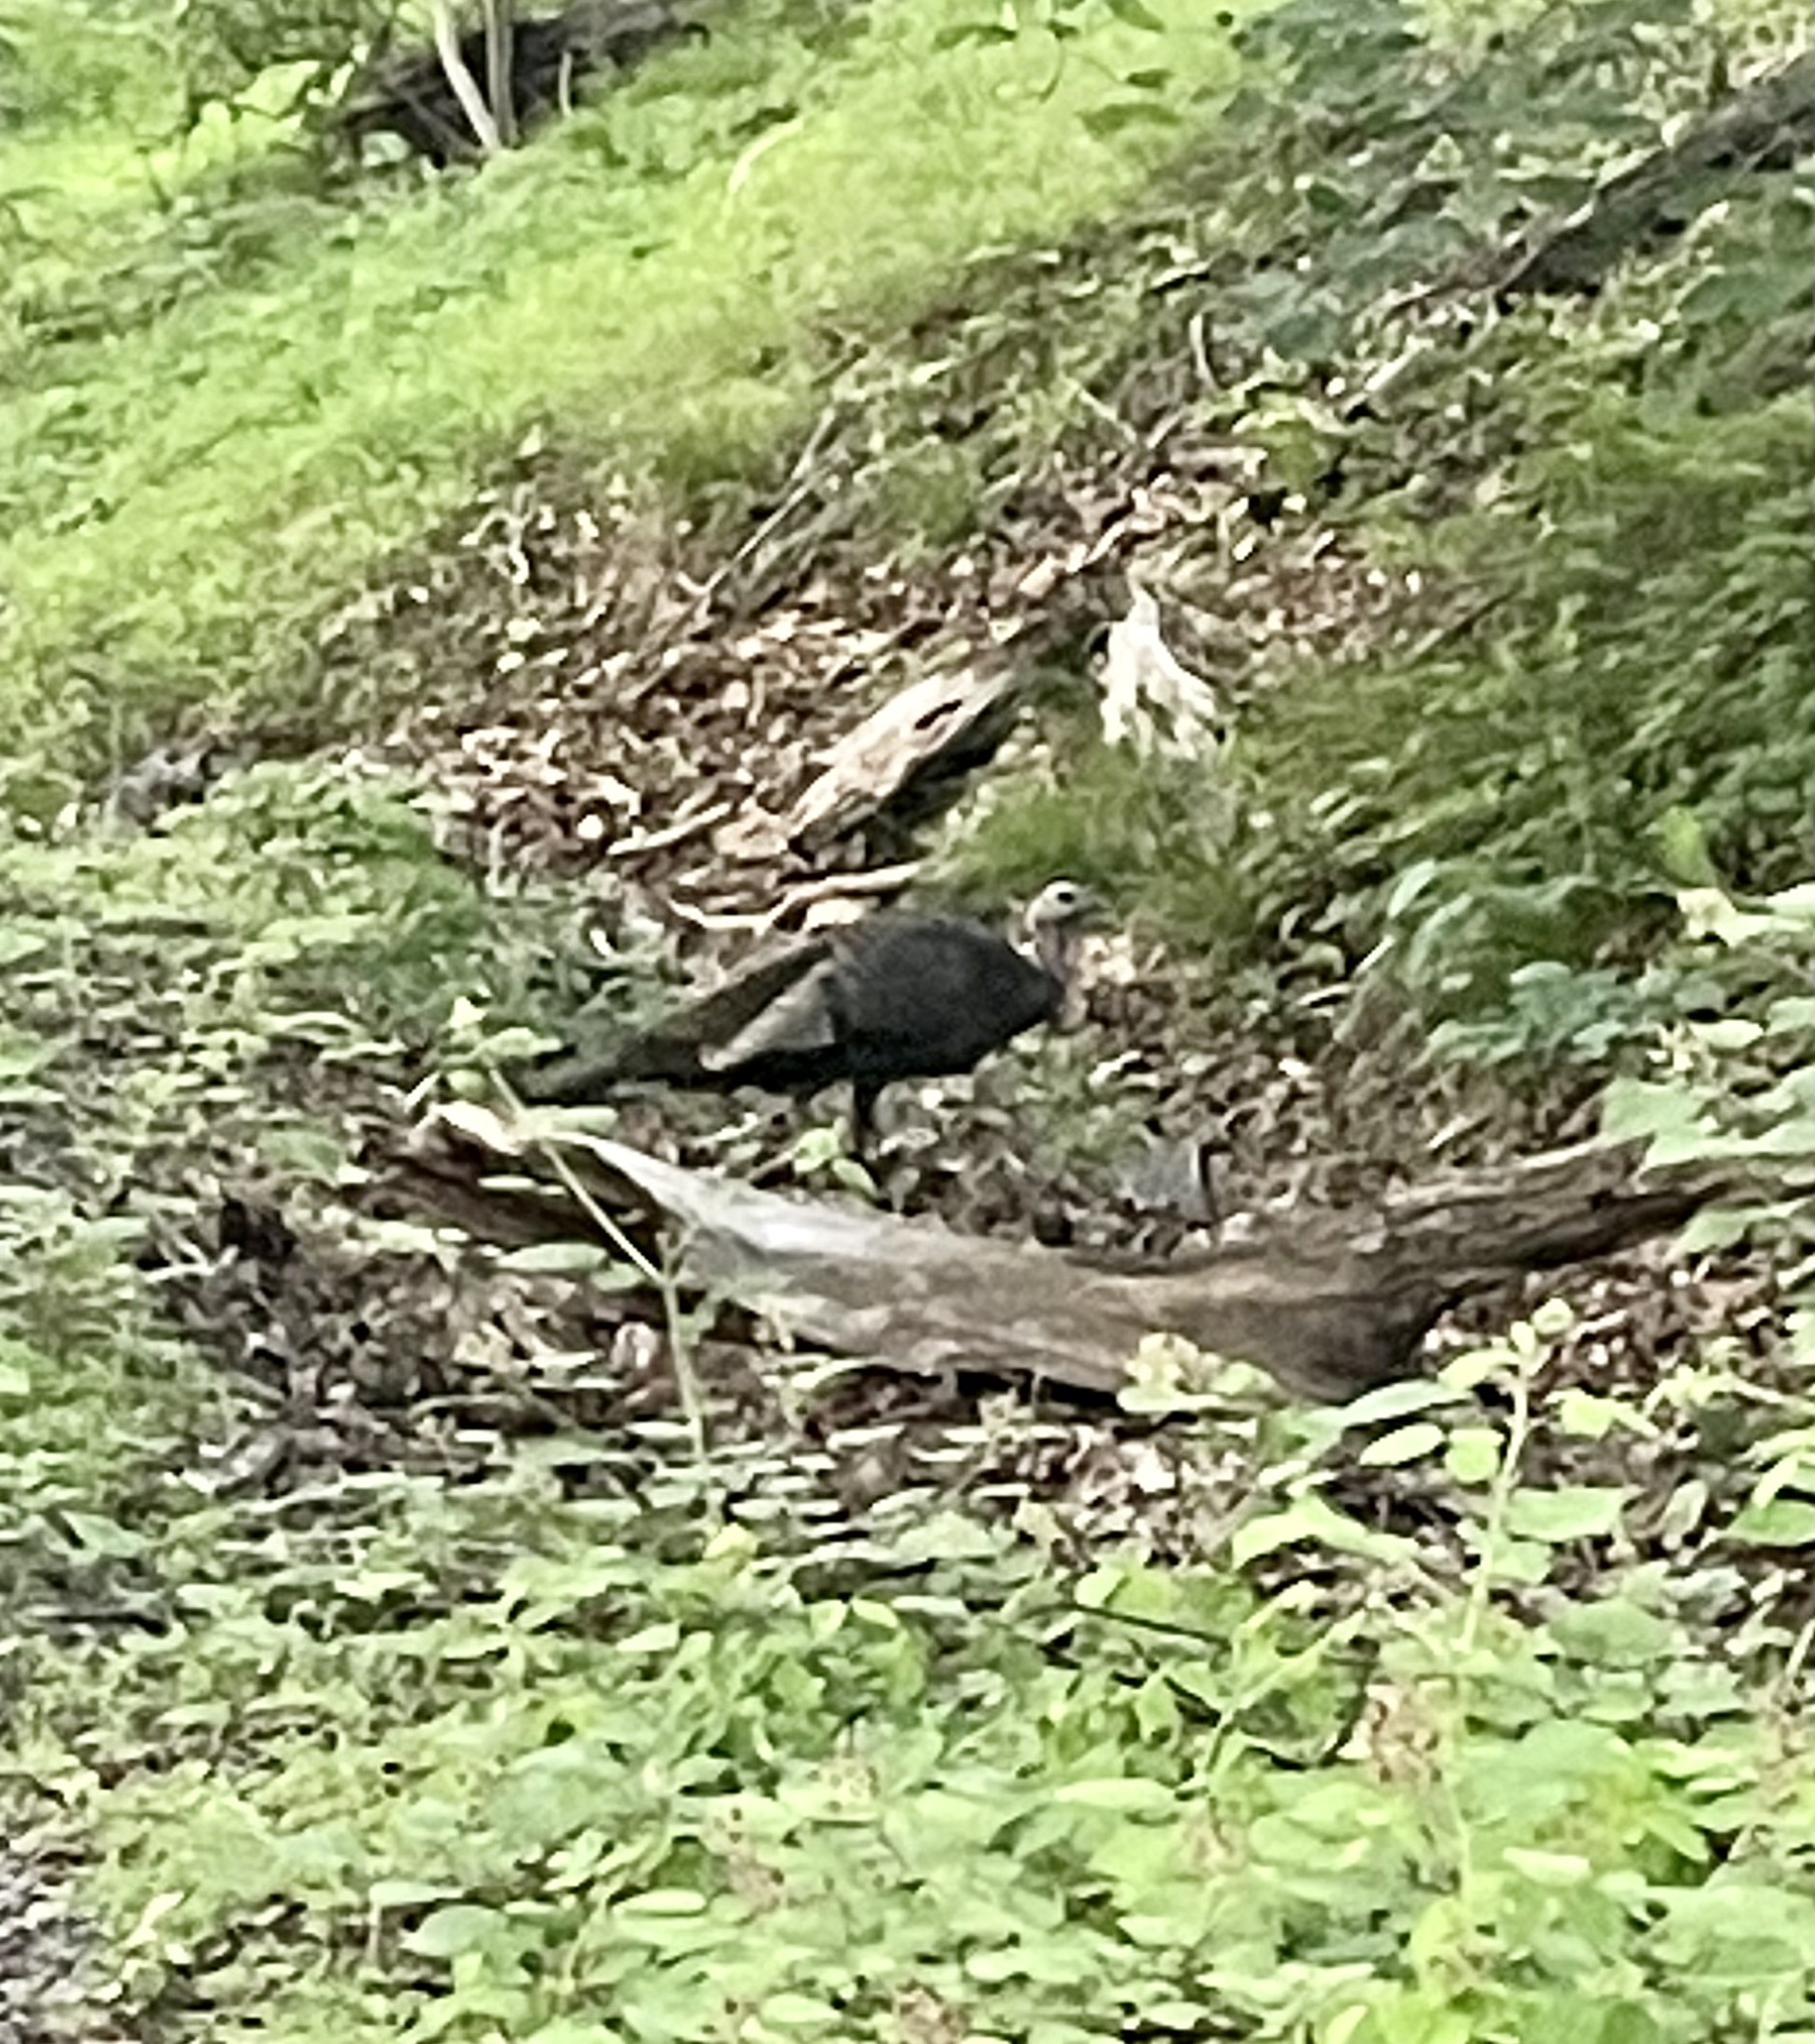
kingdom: Animalia
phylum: Chordata
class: Aves
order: Galliformes
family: Phasianidae
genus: Meleagris
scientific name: Meleagris gallopavo
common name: Wild turkey
